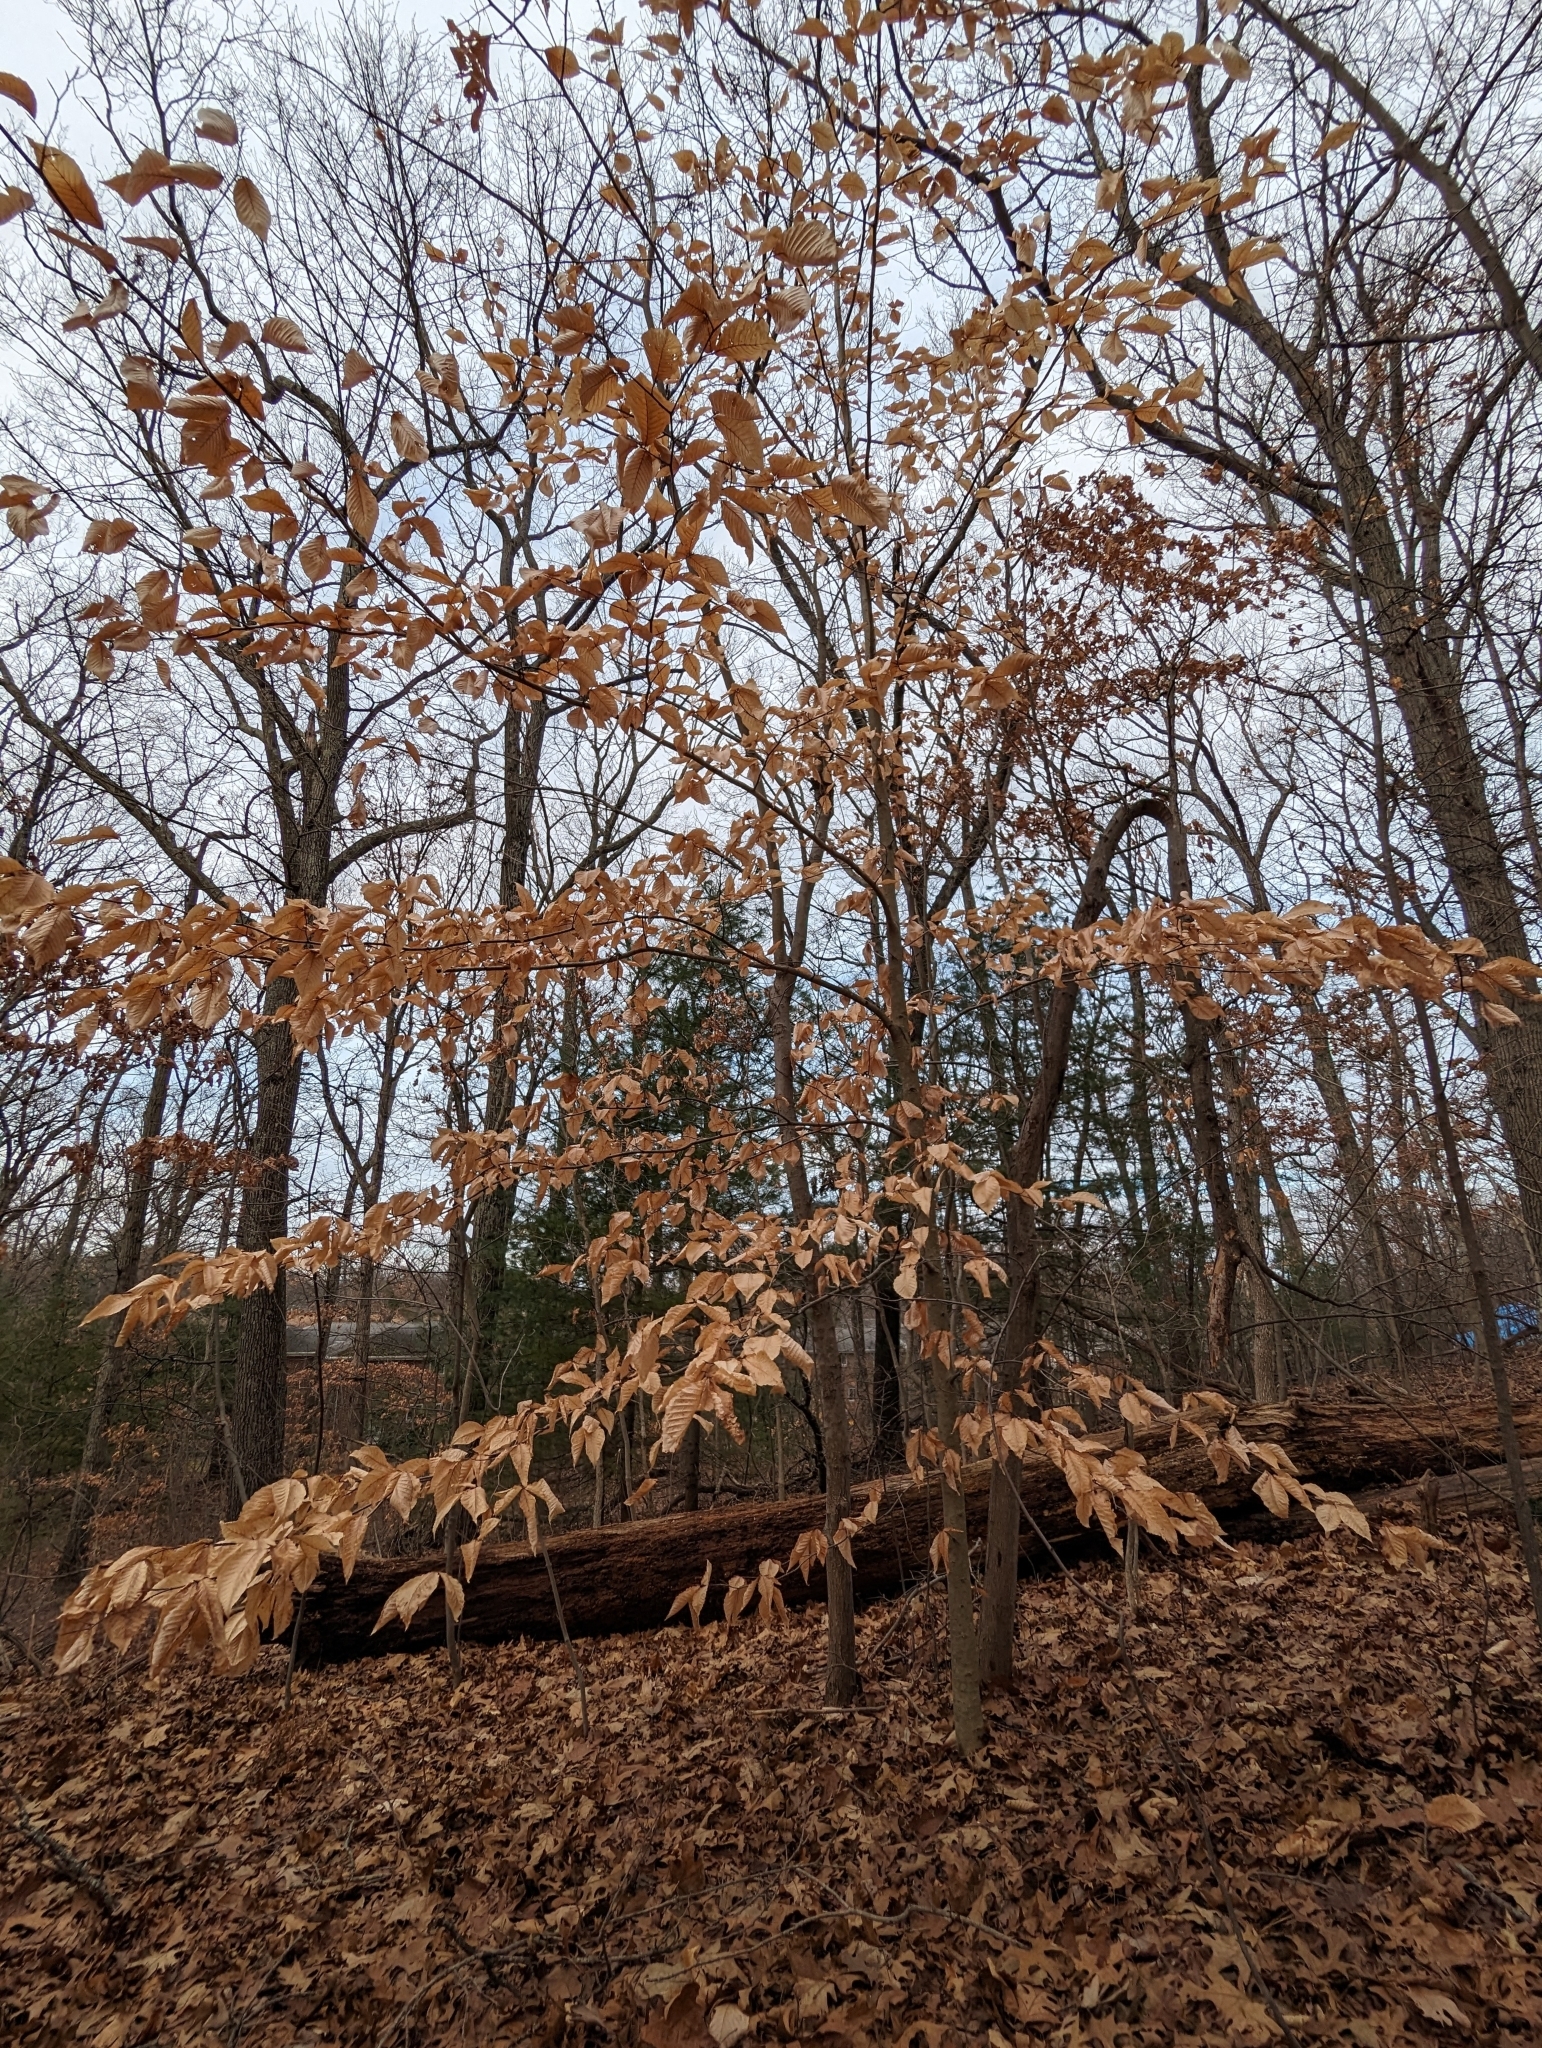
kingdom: Plantae
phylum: Tracheophyta
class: Magnoliopsida
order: Fagales
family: Fagaceae
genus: Fagus
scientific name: Fagus grandifolia
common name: American beech
